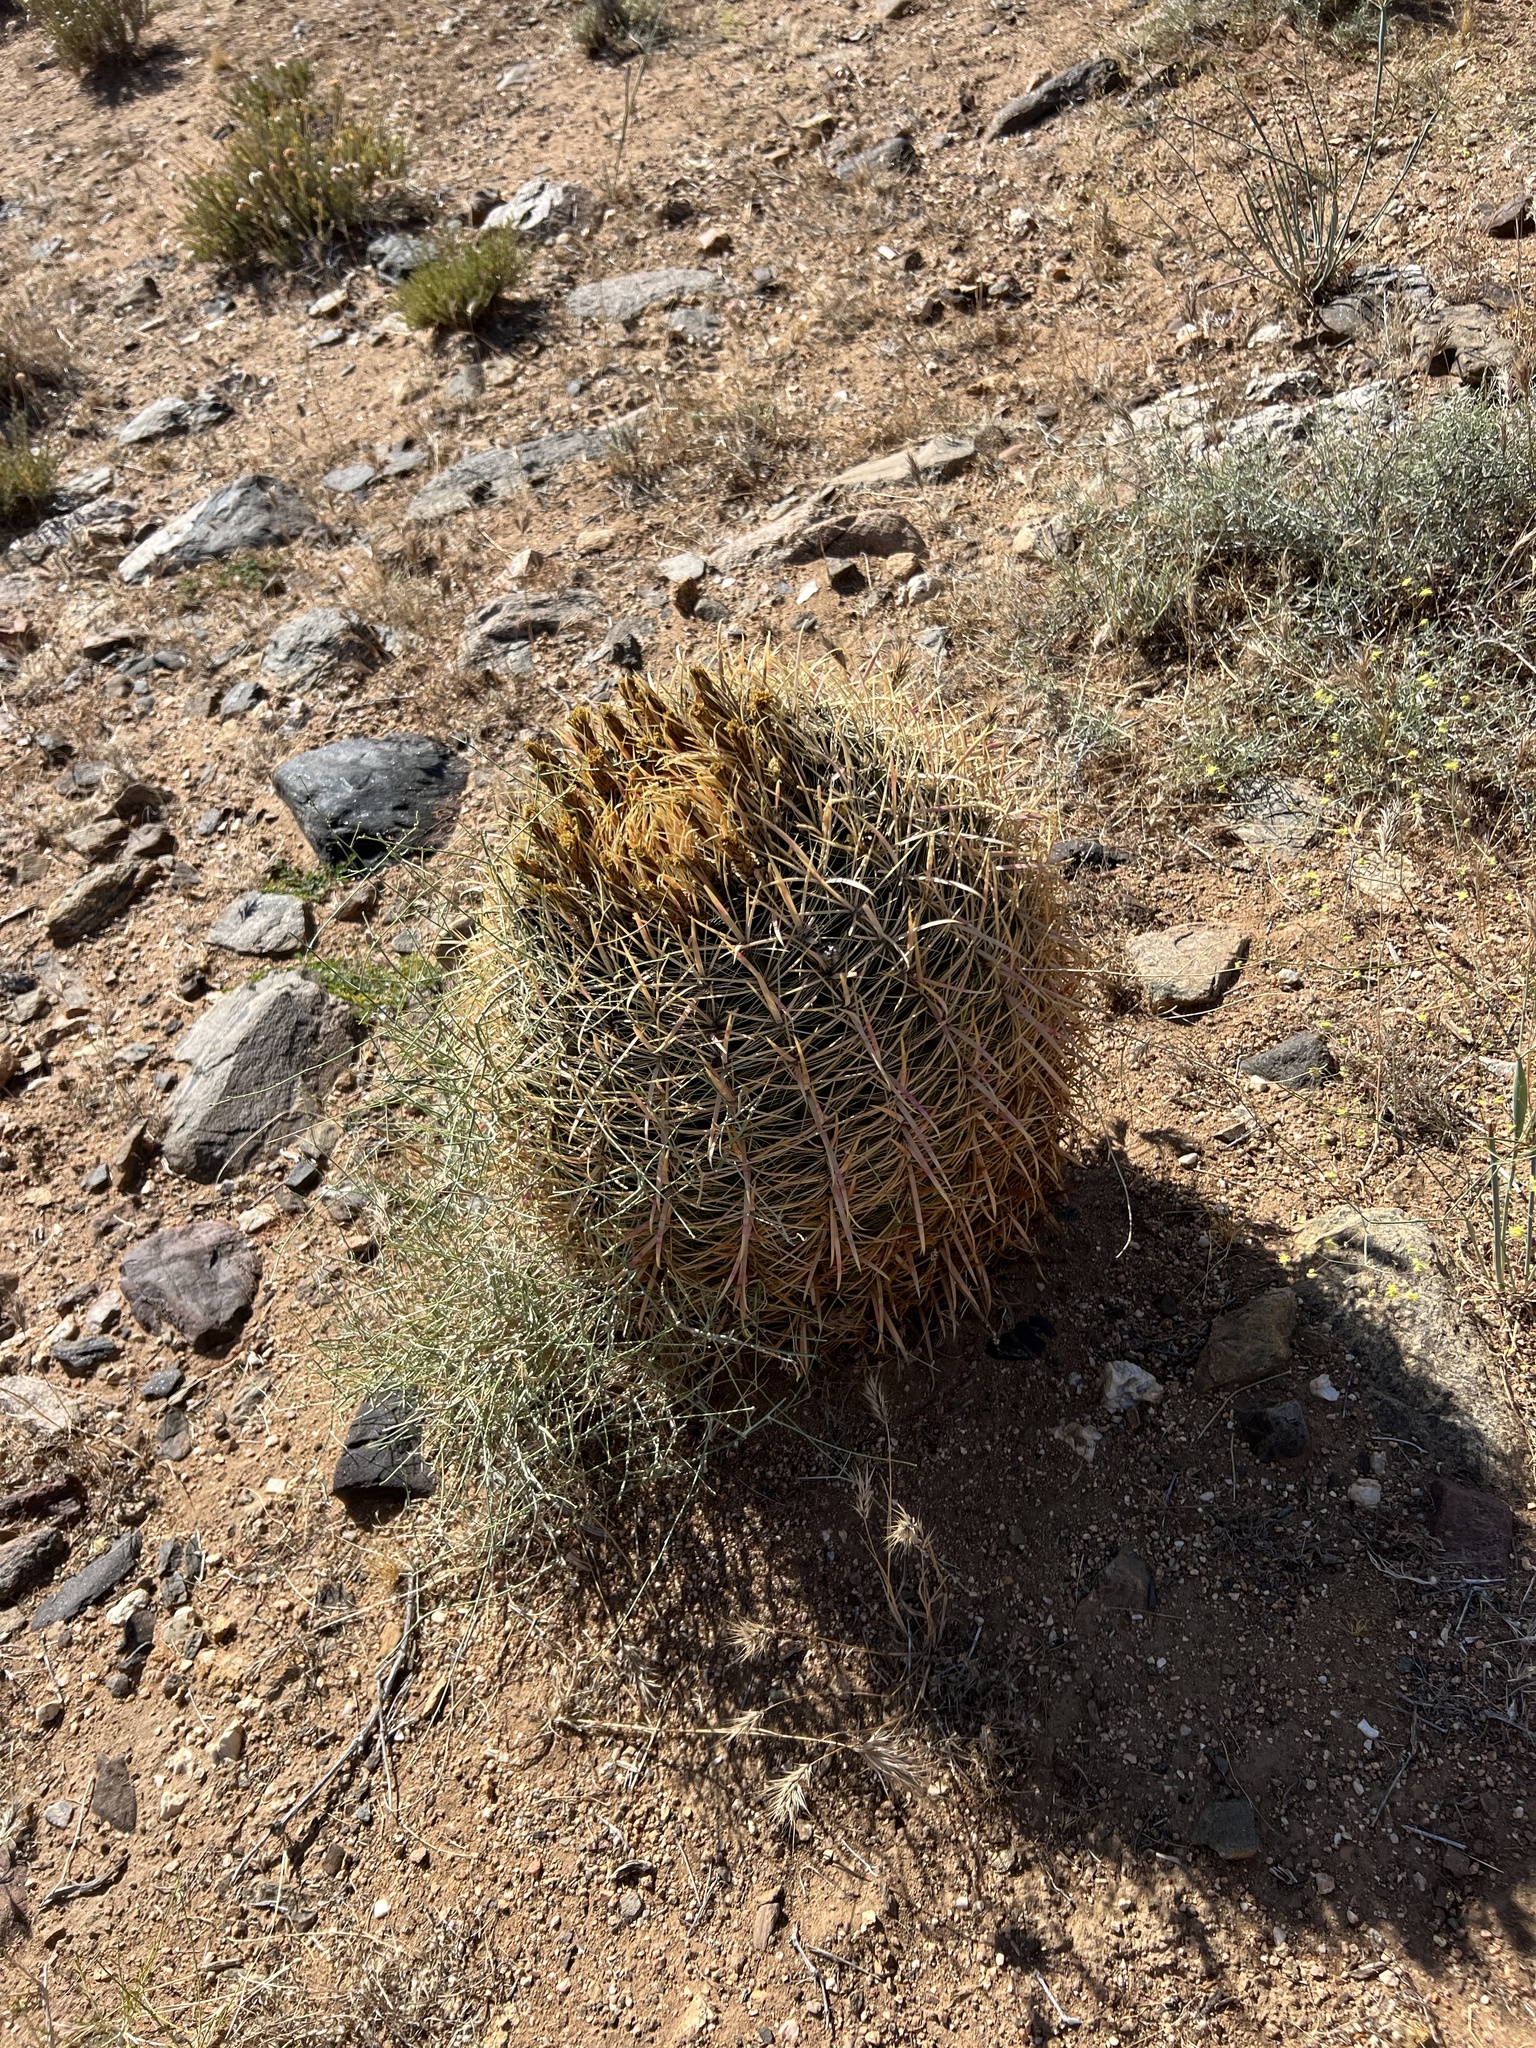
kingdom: Plantae
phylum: Tracheophyta
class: Magnoliopsida
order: Caryophyllales
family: Cactaceae
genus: Ferocactus
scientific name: Ferocactus cylindraceus
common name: California barrel cactus
